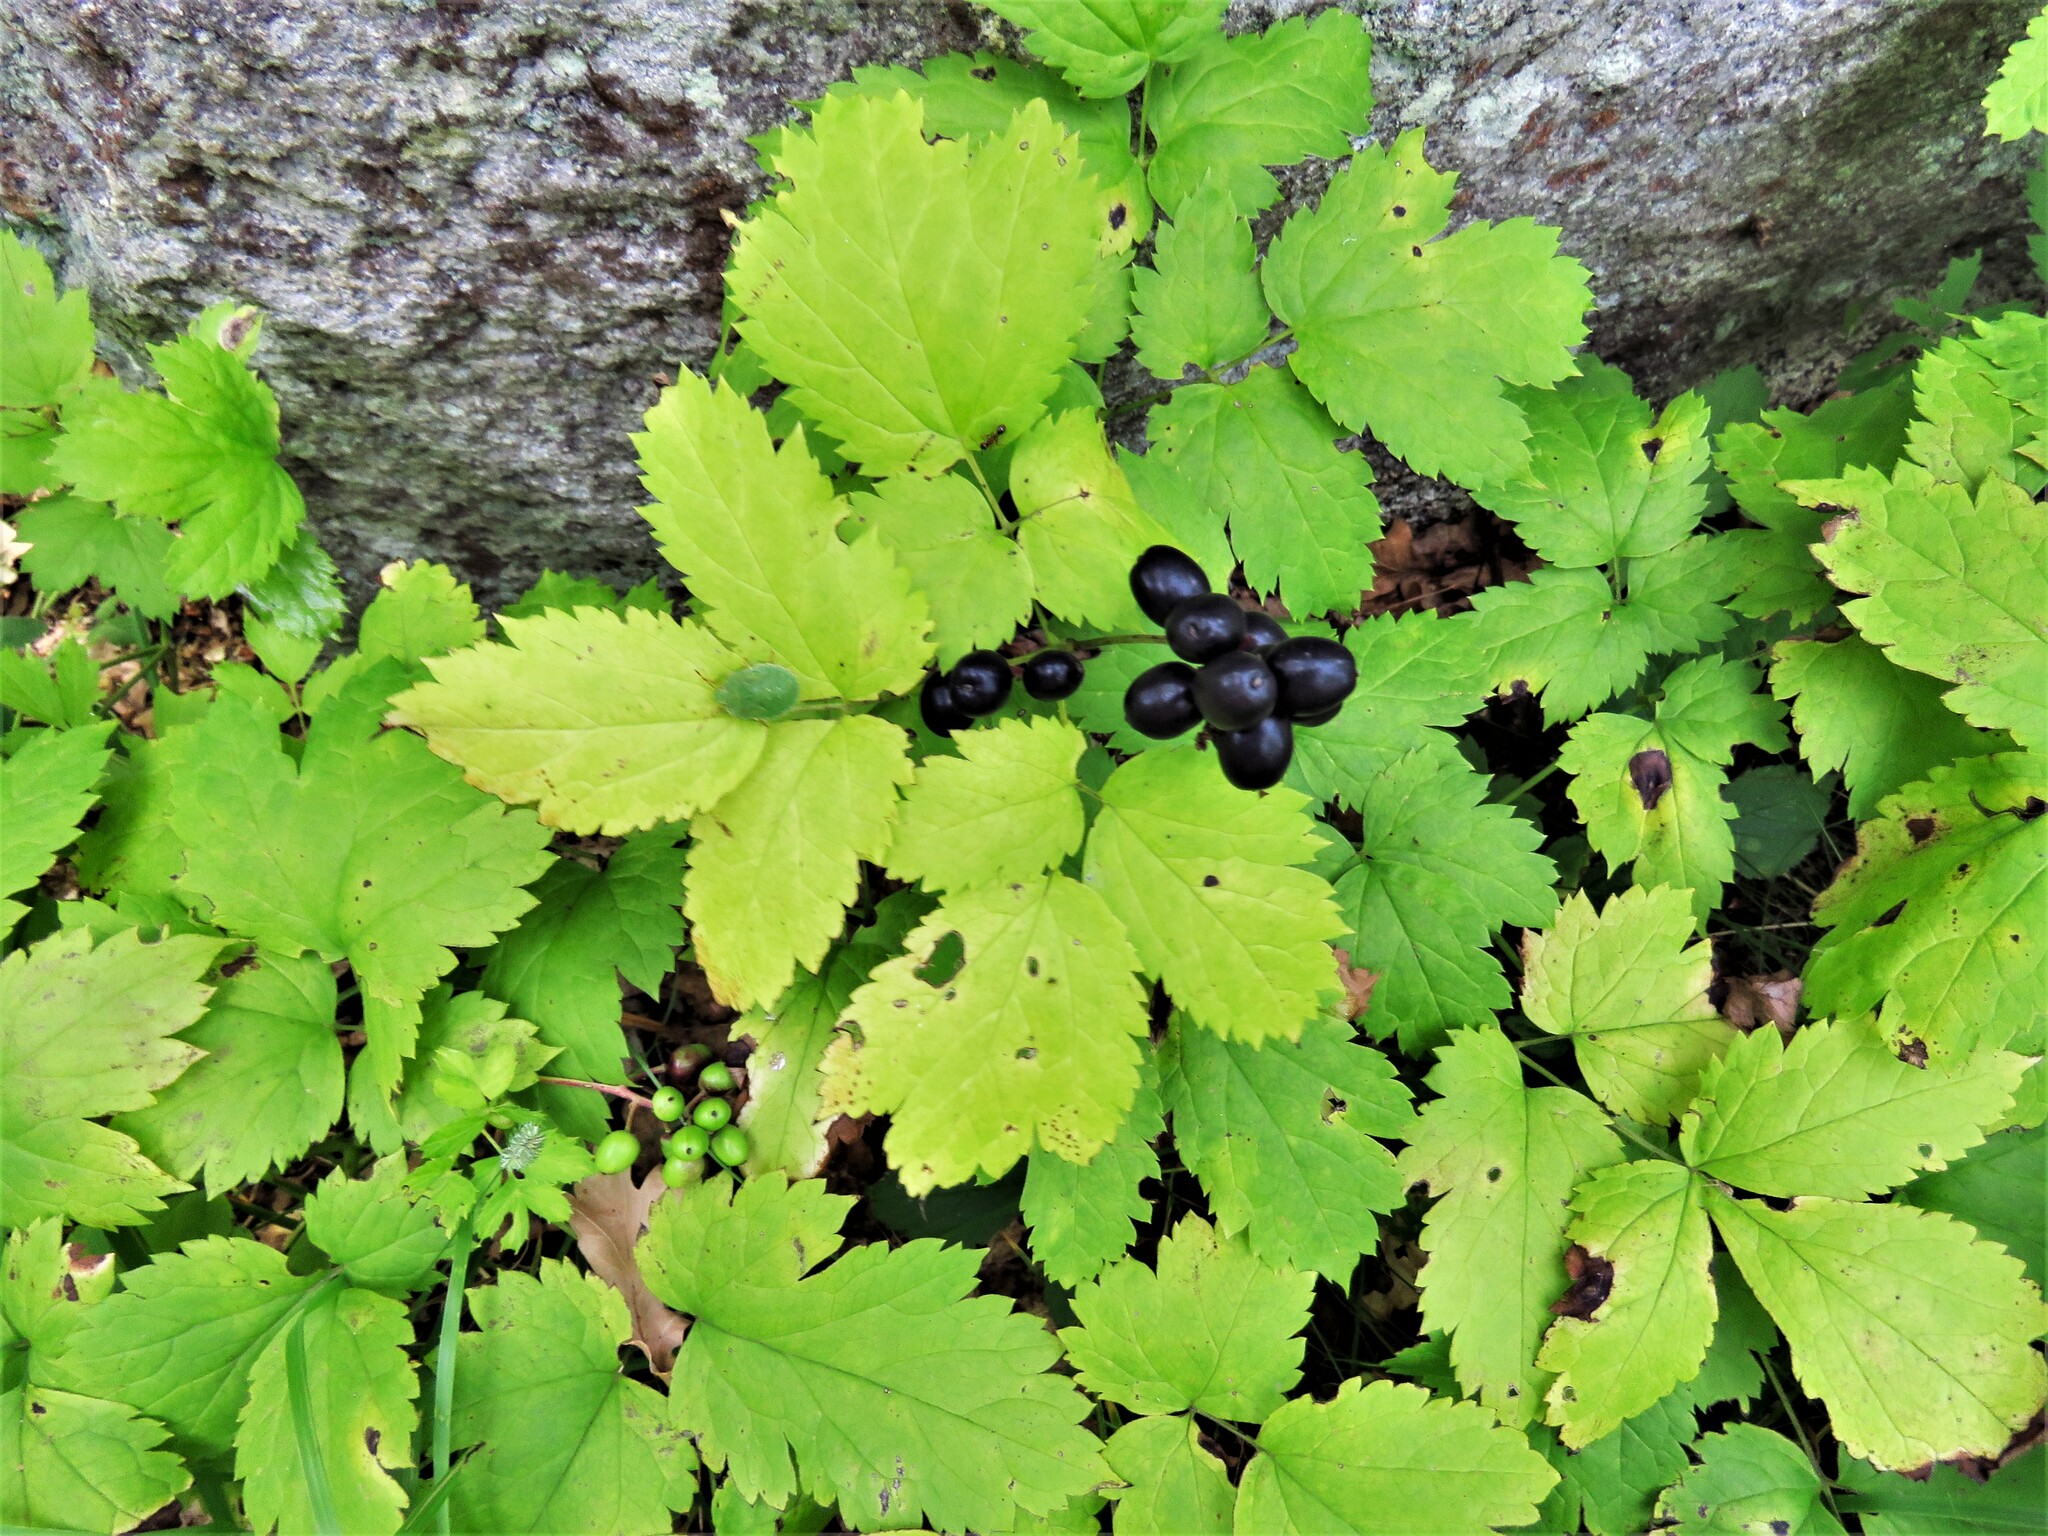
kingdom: Plantae
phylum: Tracheophyta
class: Magnoliopsida
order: Ranunculales
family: Ranunculaceae
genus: Actaea
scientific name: Actaea spicata
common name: Baneberry
